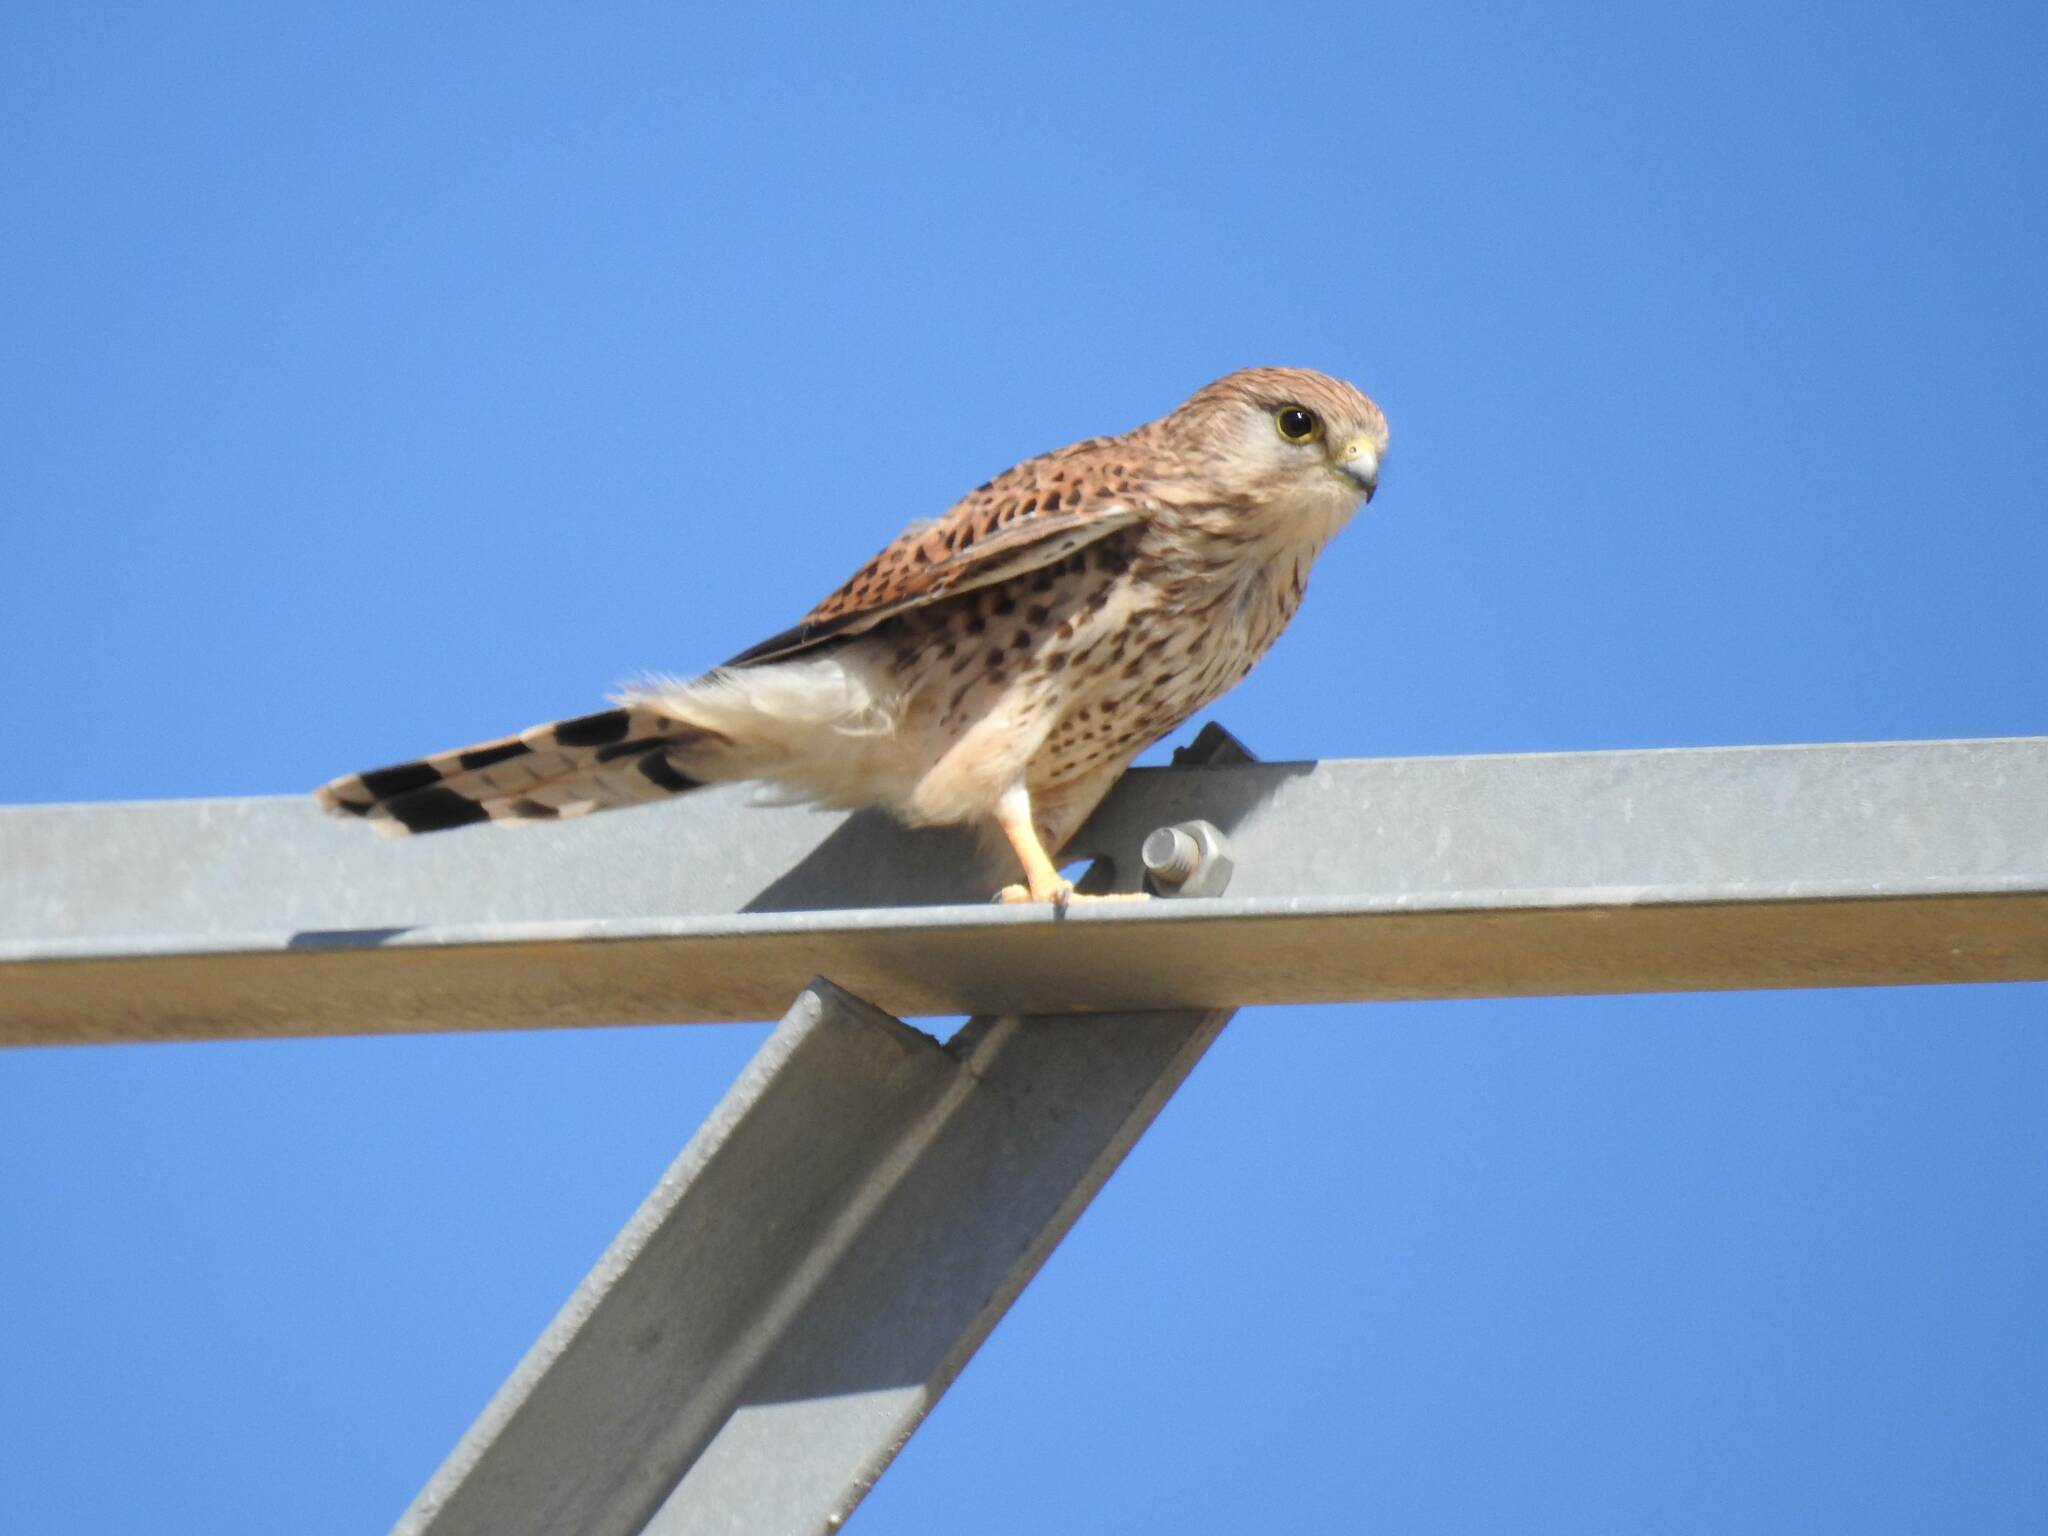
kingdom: Animalia
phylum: Chordata
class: Aves
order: Falconiformes
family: Falconidae
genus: Falco
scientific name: Falco tinnunculus
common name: Common kestrel
